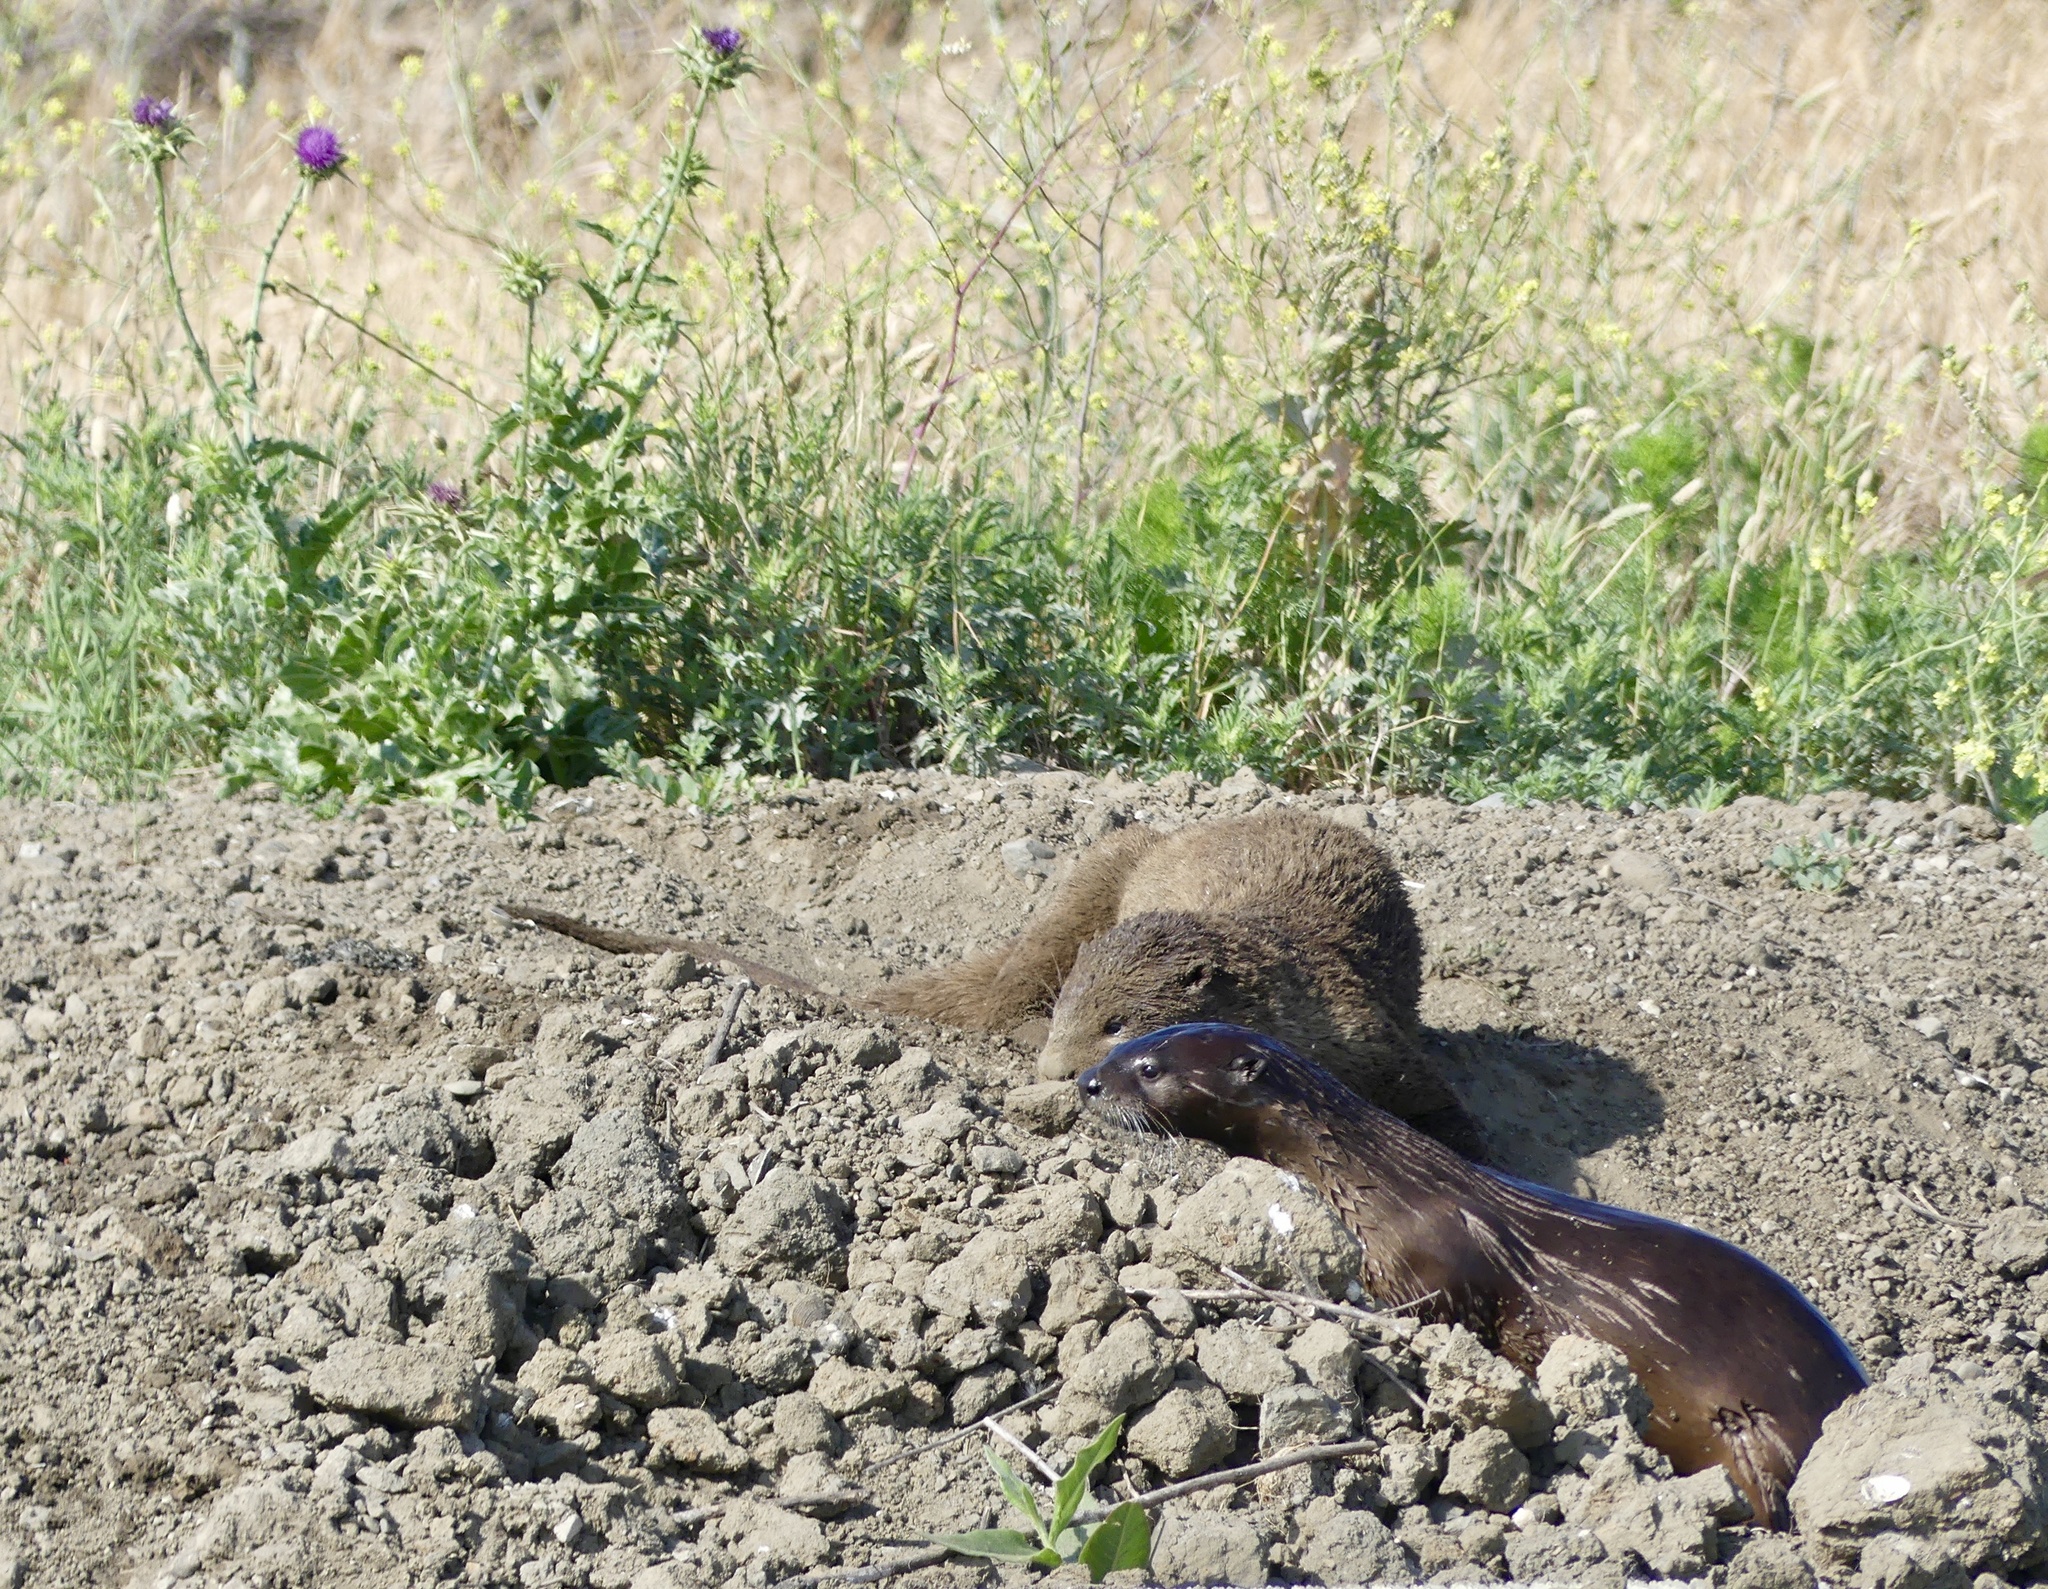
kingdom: Animalia
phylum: Chordata
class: Mammalia
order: Carnivora
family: Mustelidae
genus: Lontra
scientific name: Lontra canadensis
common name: North american river otter
